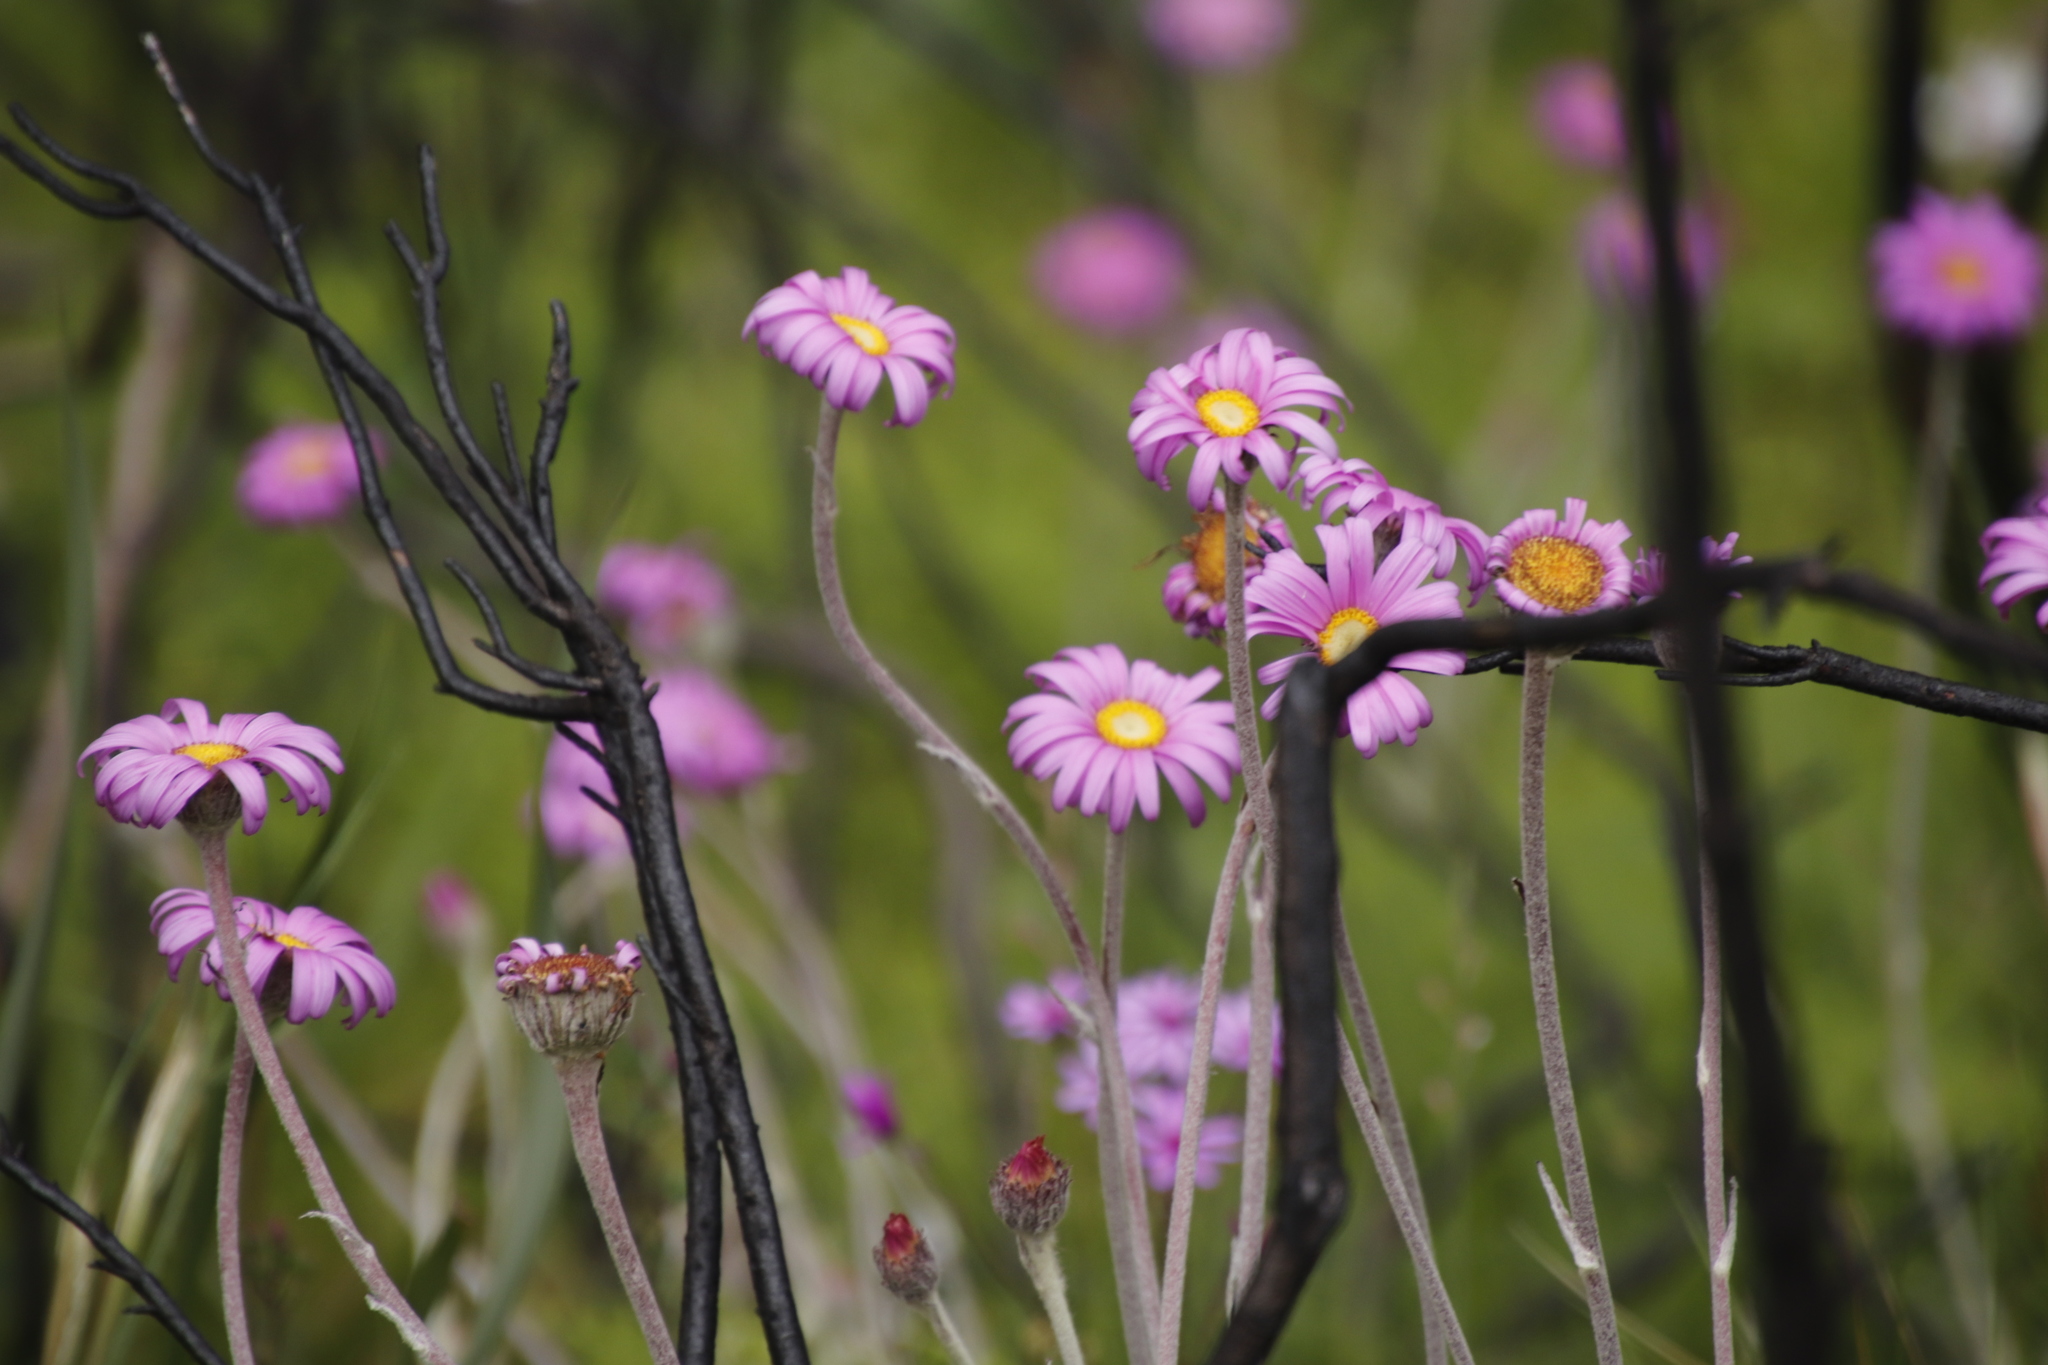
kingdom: Plantae
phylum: Tracheophyta
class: Magnoliopsida
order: Asterales
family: Asteraceae
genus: Zyrphelis
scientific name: Zyrphelis crenata
